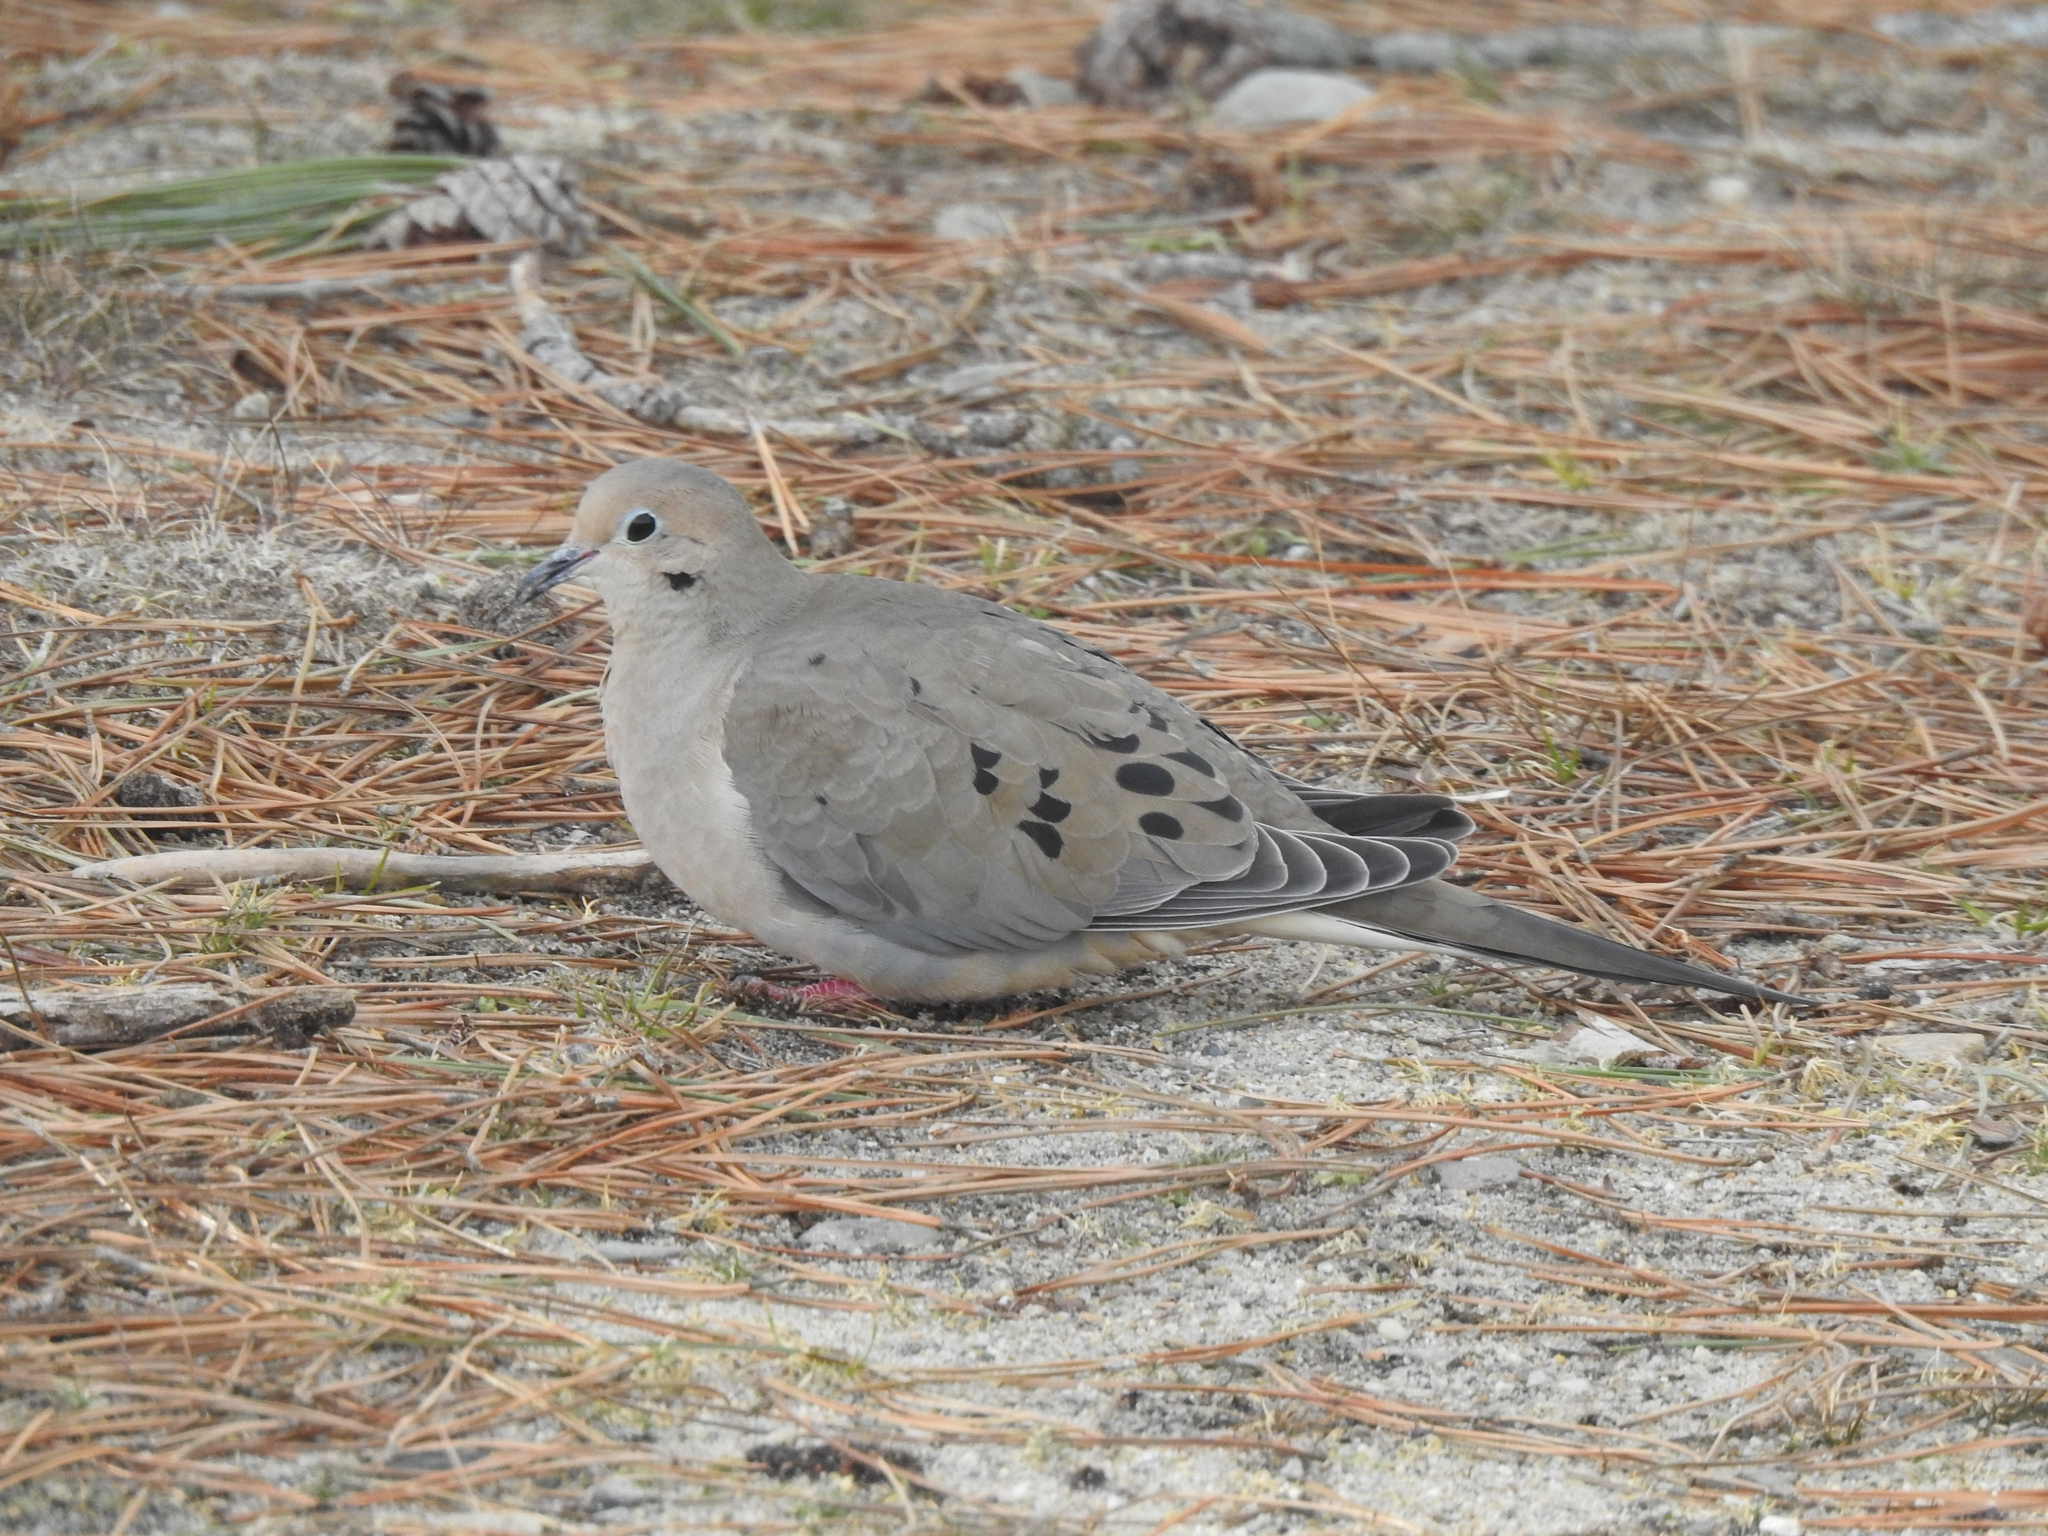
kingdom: Animalia
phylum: Chordata
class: Aves
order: Columbiformes
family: Columbidae
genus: Zenaida
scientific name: Zenaida macroura
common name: Mourning dove
